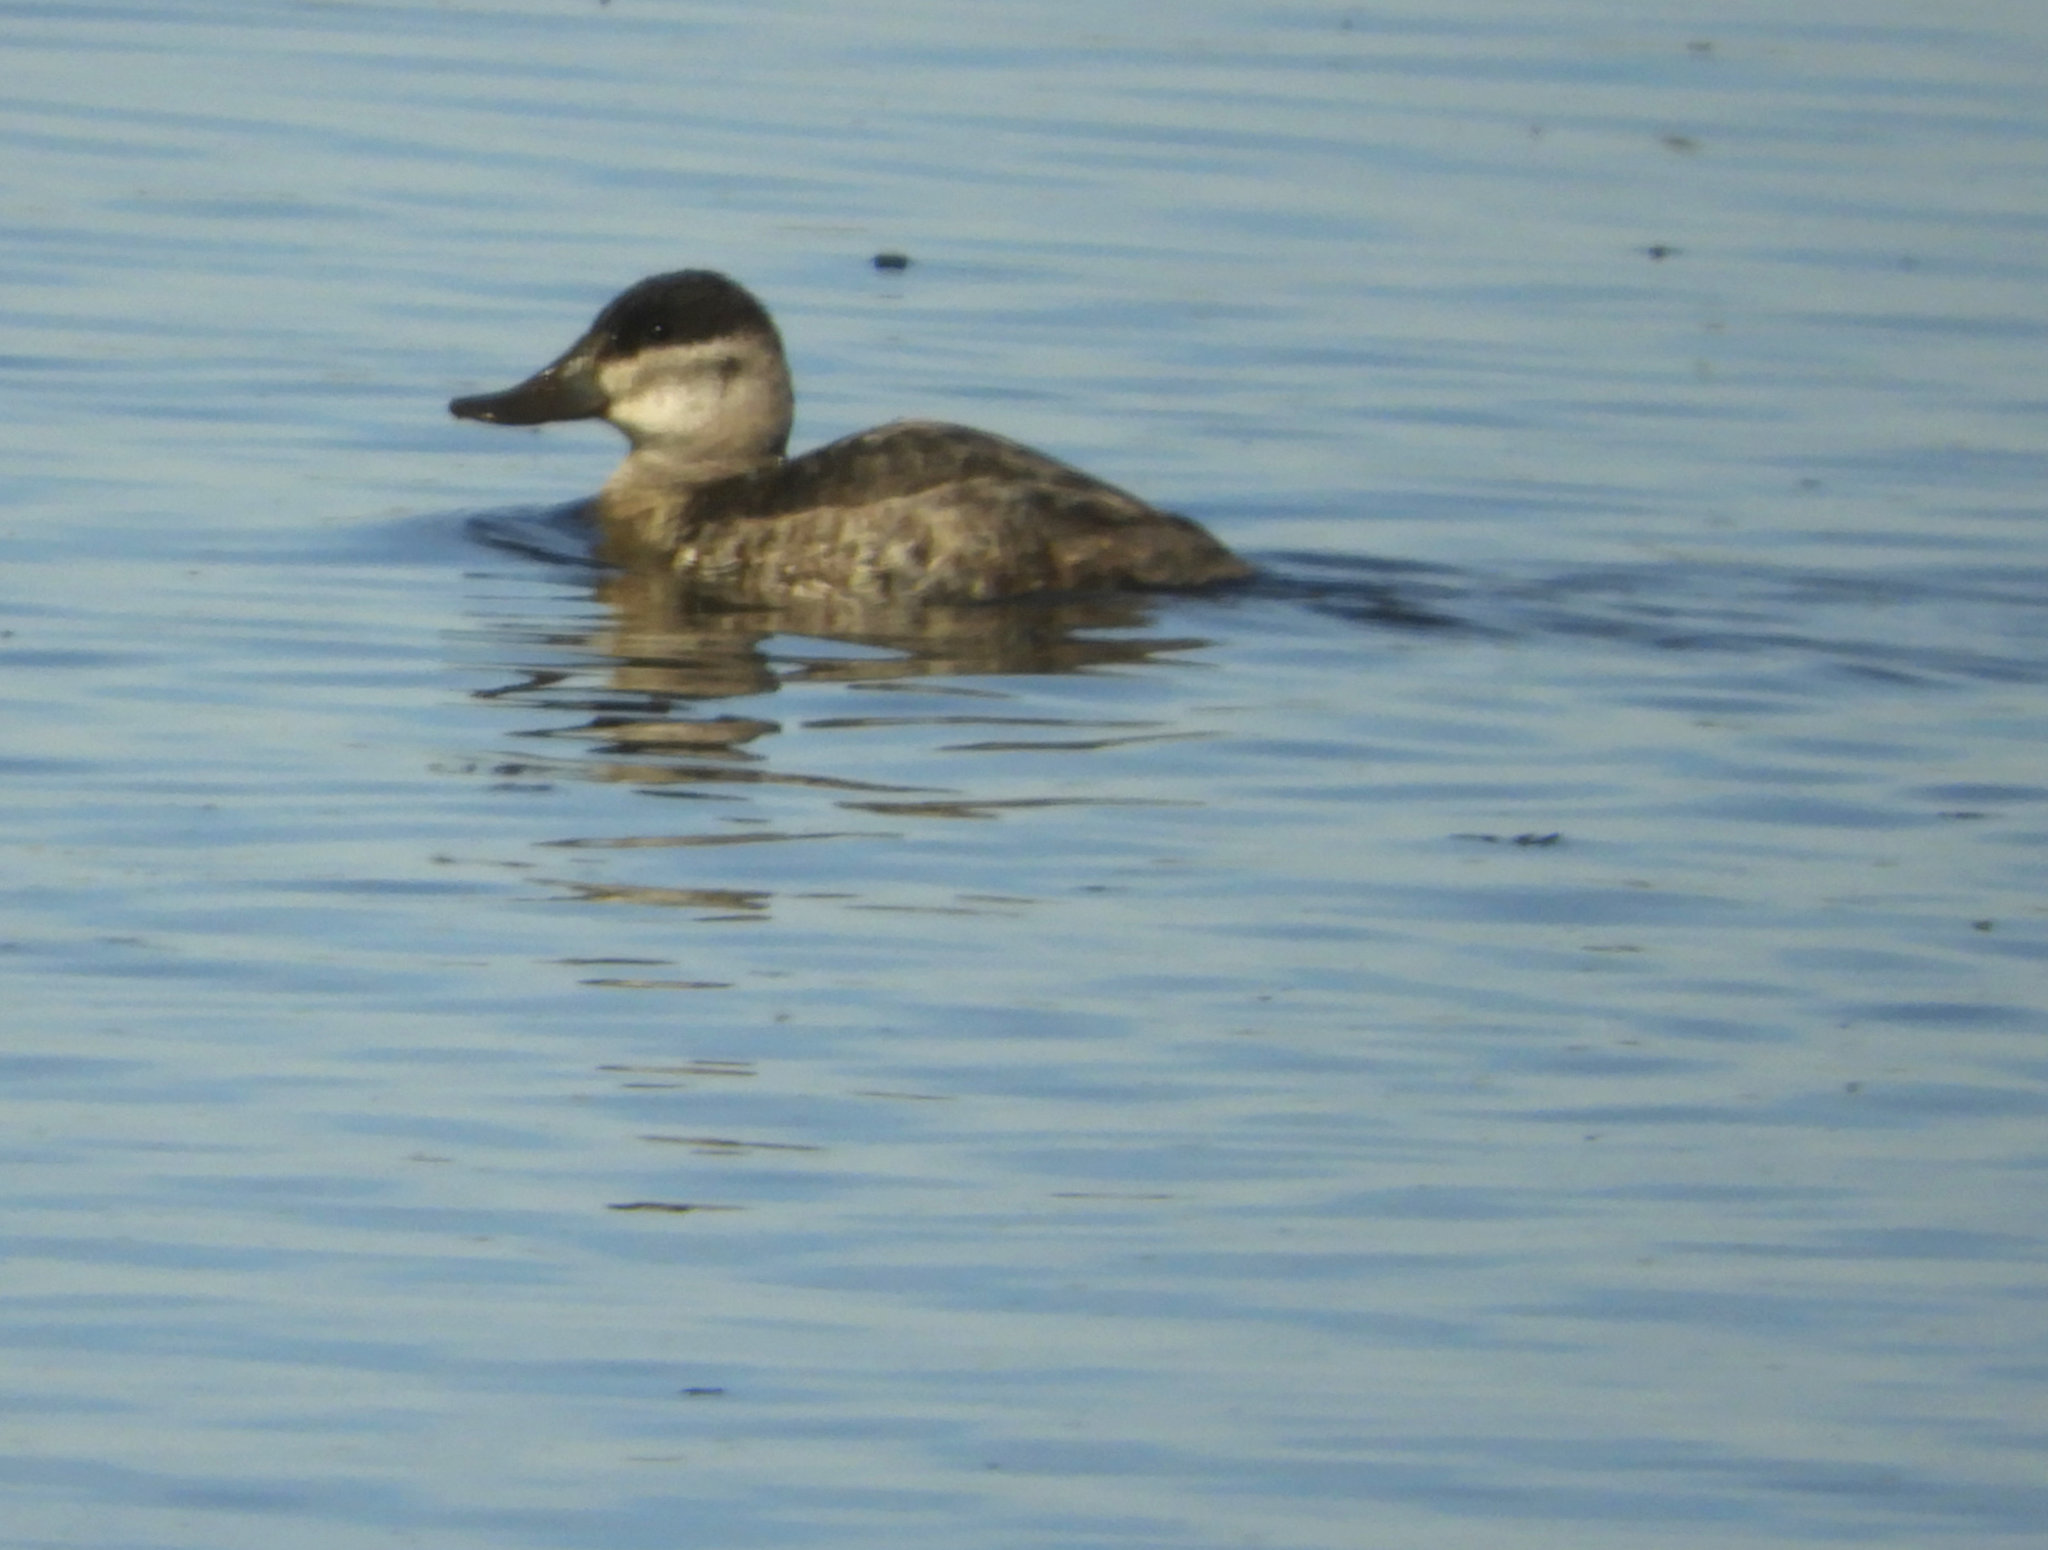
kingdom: Animalia
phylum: Chordata
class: Aves
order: Anseriformes
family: Anatidae
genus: Oxyura
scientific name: Oxyura jamaicensis
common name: Ruddy duck
